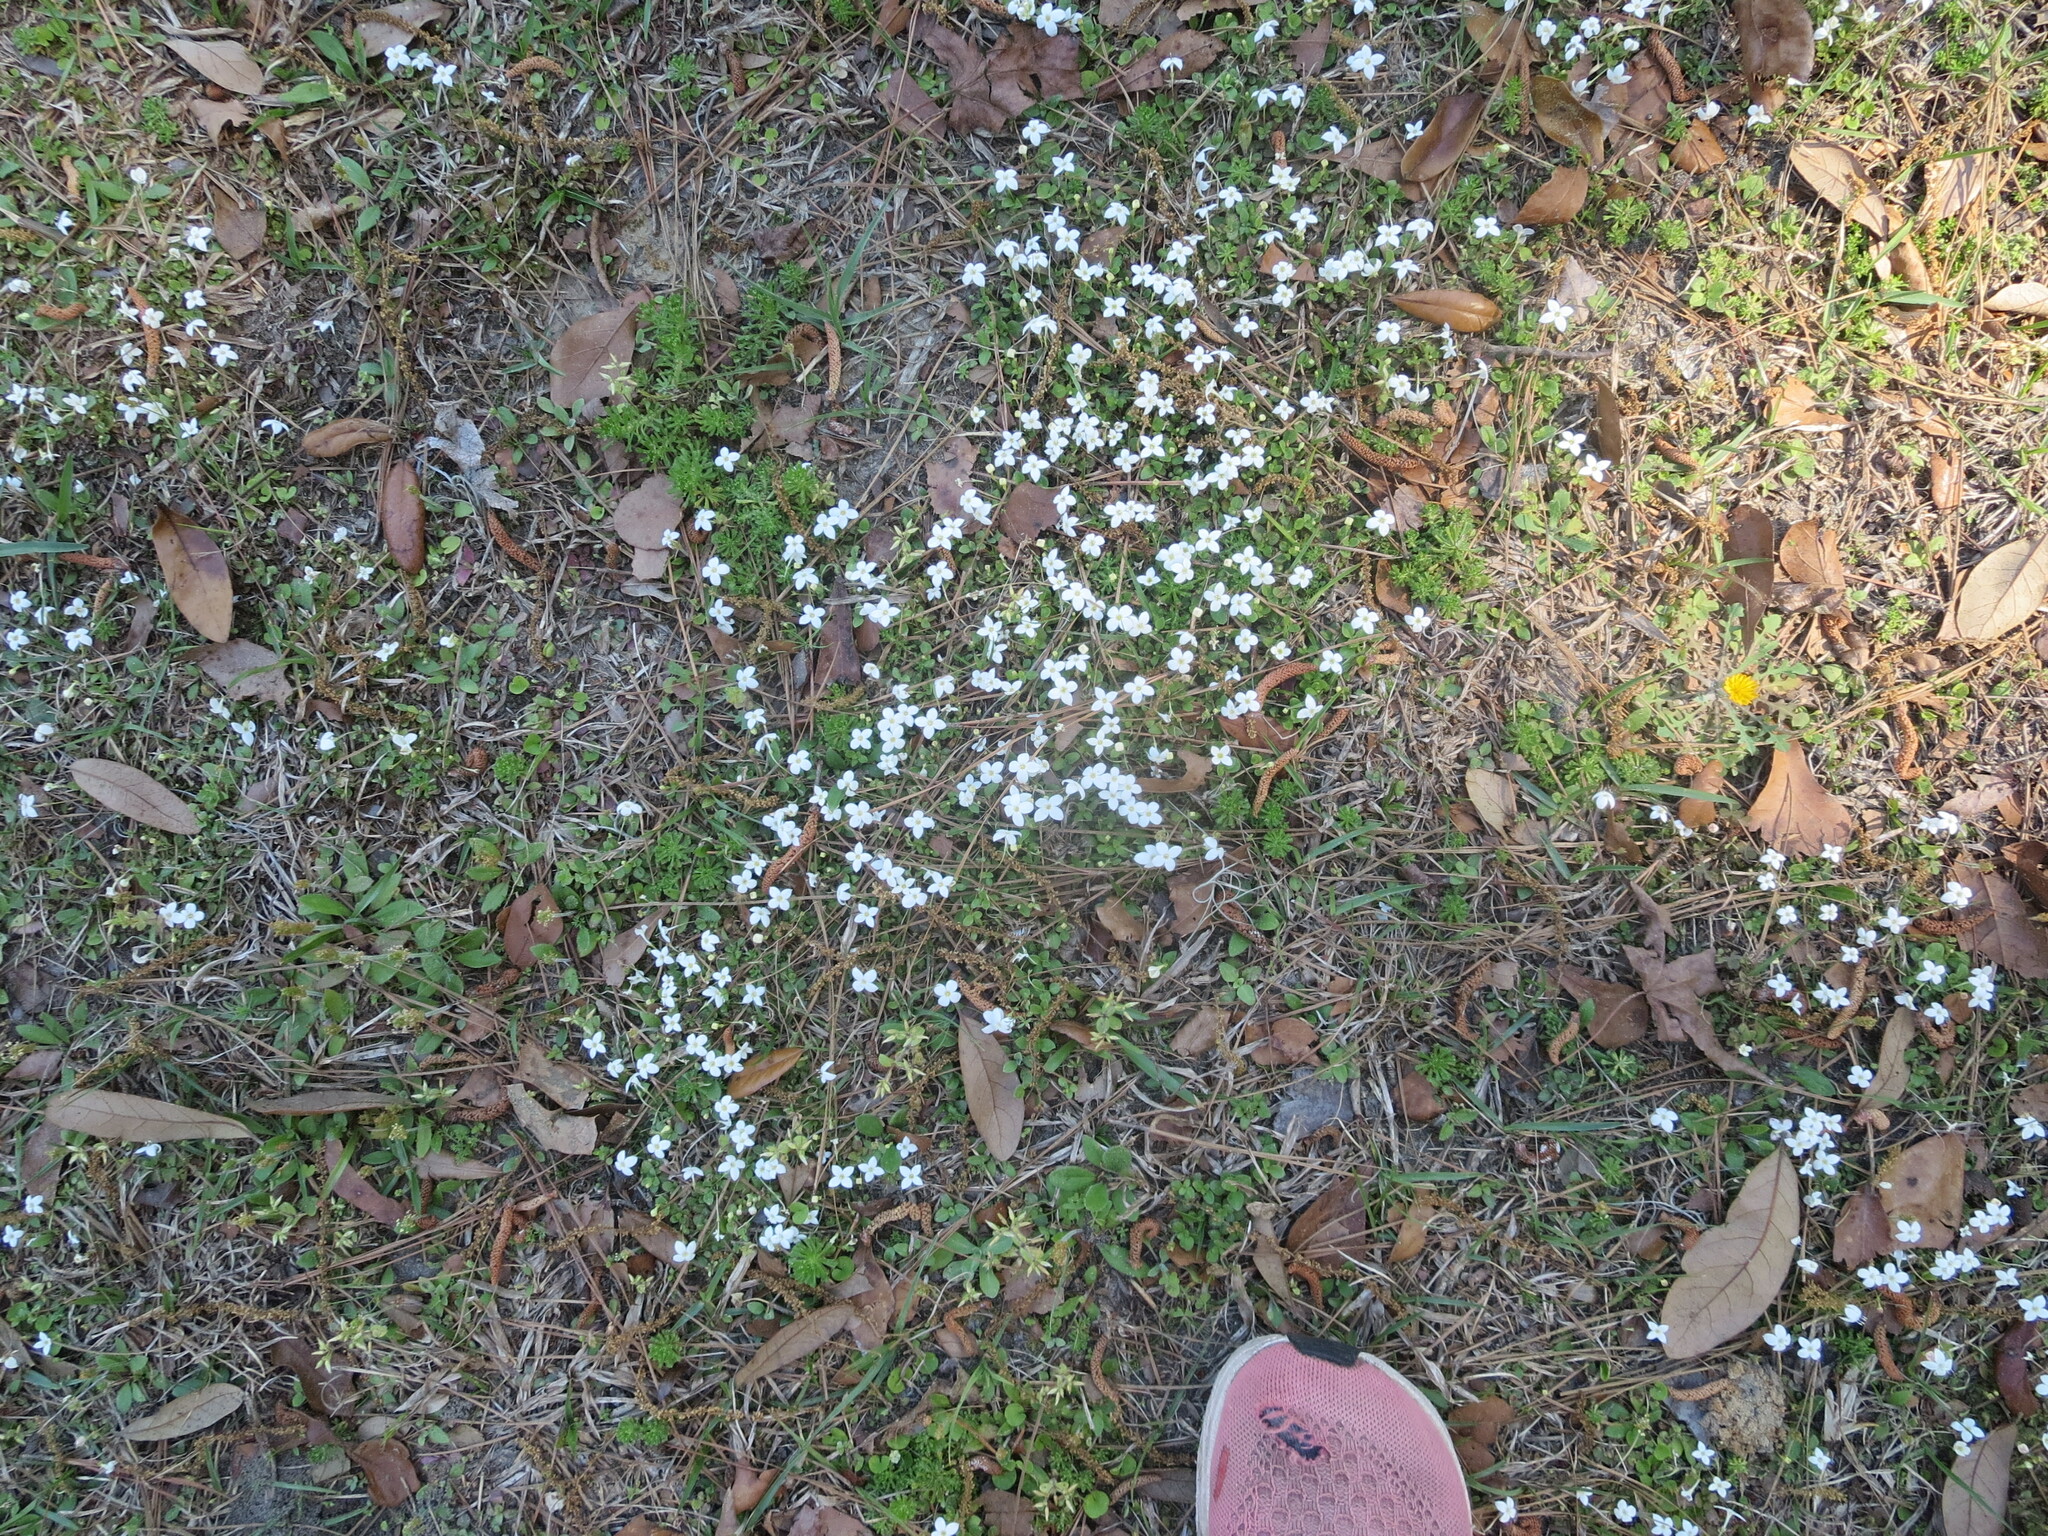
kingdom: Plantae
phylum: Tracheophyta
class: Magnoliopsida
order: Gentianales
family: Rubiaceae
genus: Houstonia
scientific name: Houstonia procumbens
